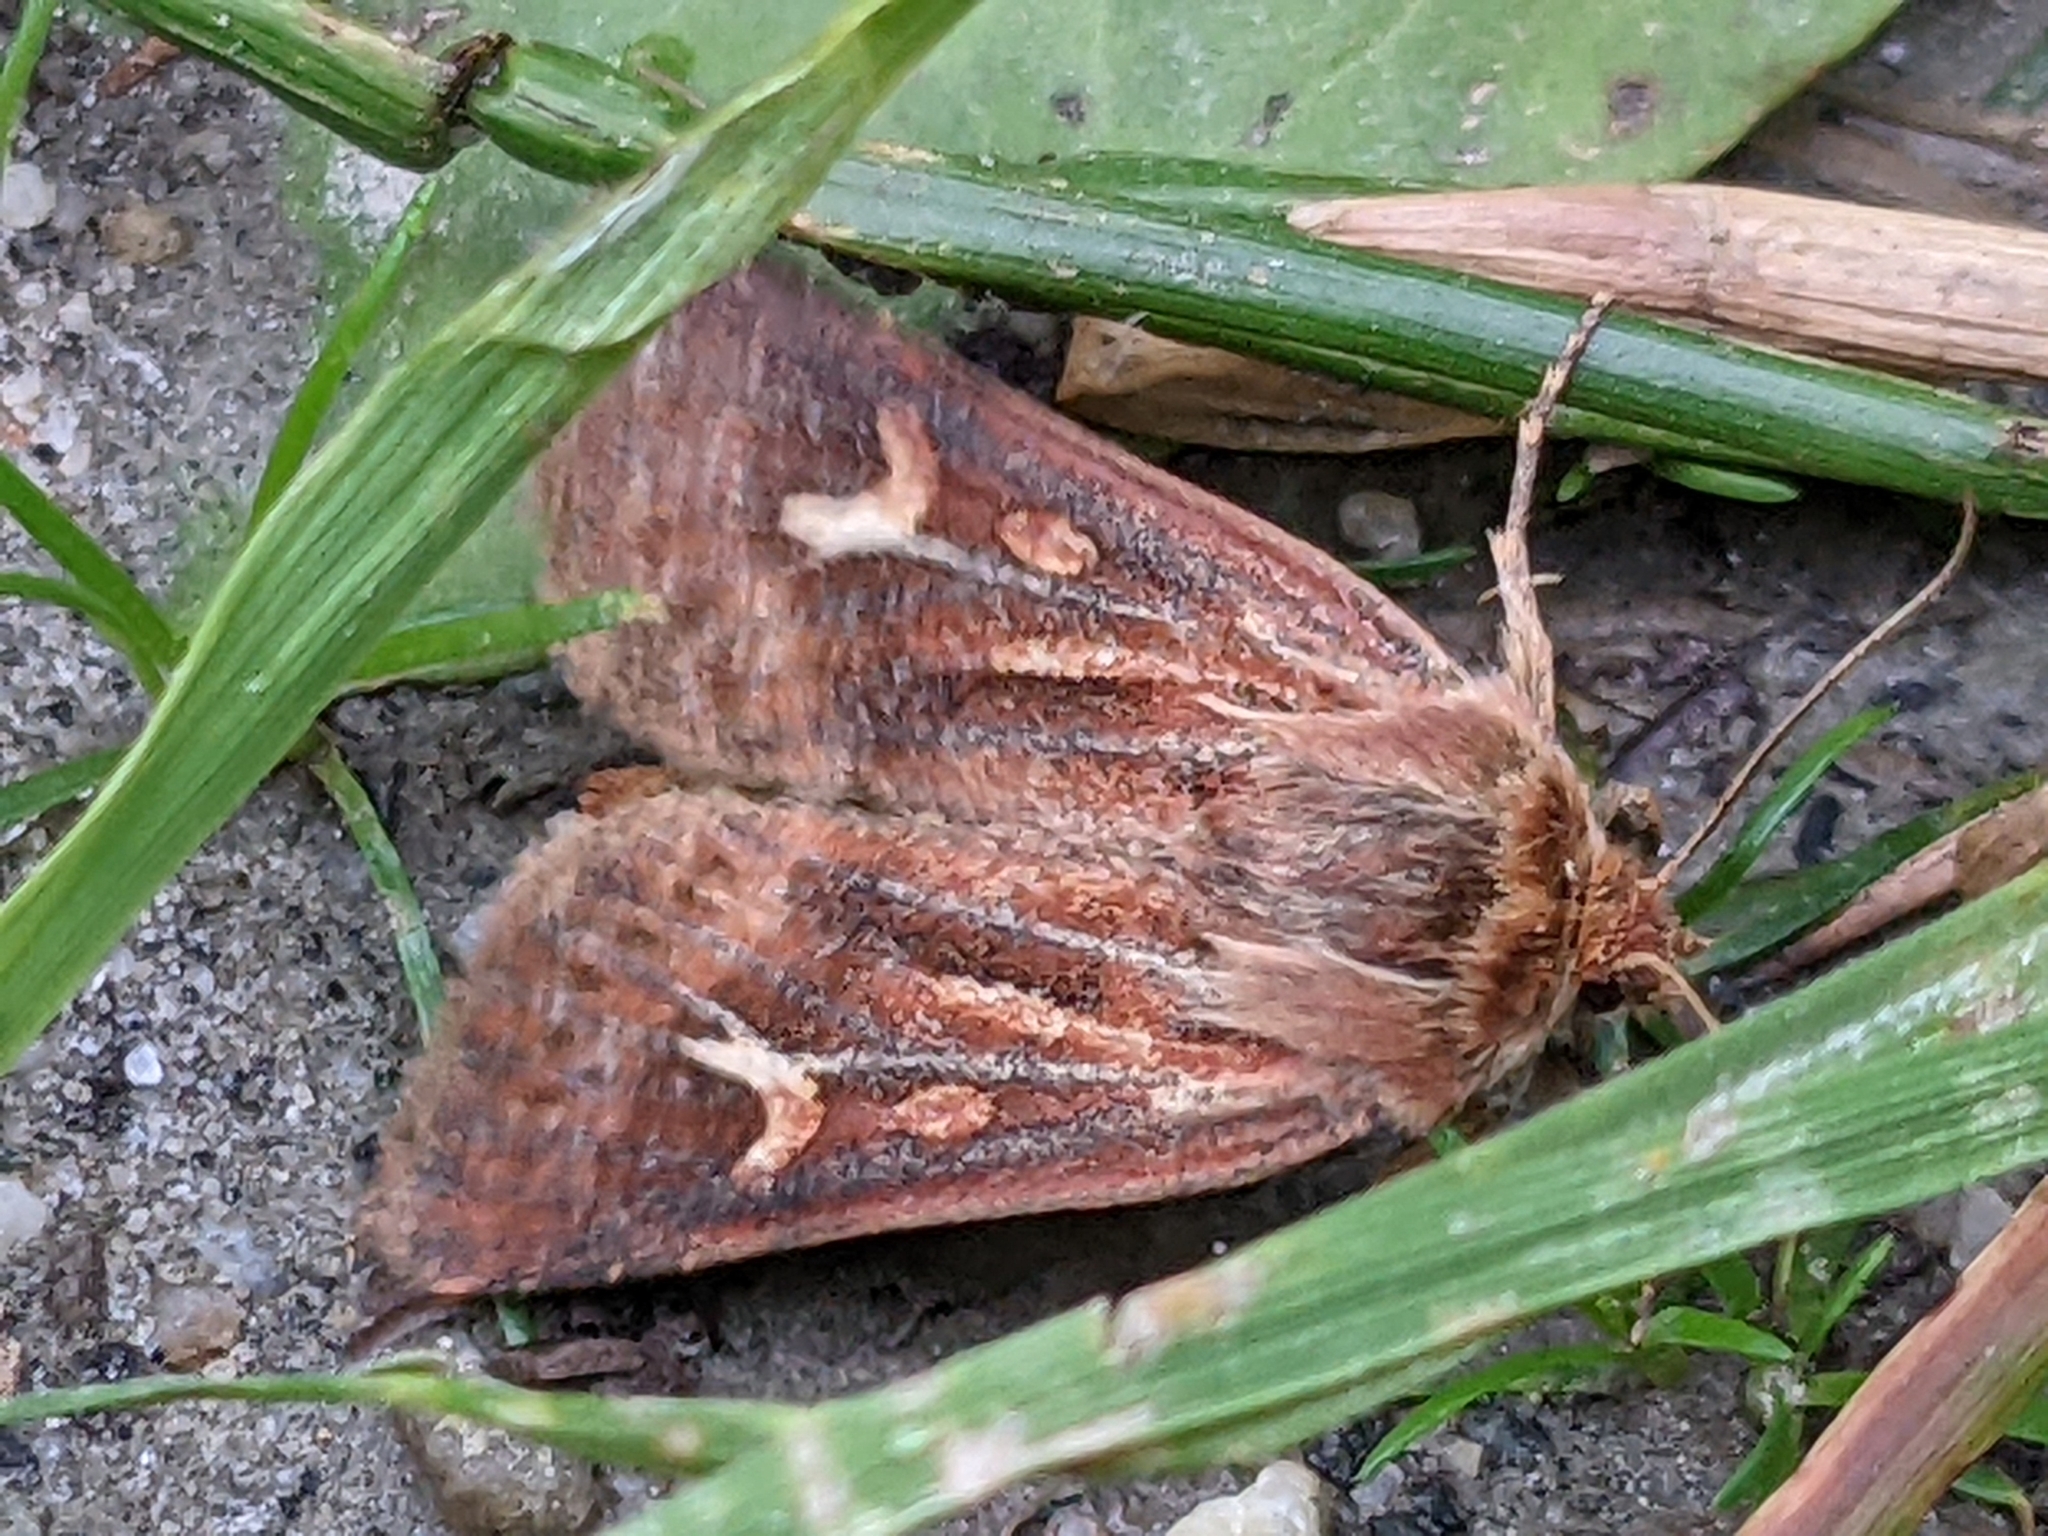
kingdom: Animalia
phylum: Arthropoda
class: Insecta
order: Lepidoptera
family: Noctuidae
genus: Cerapteryx
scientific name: Cerapteryx graminis
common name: Antler moth
